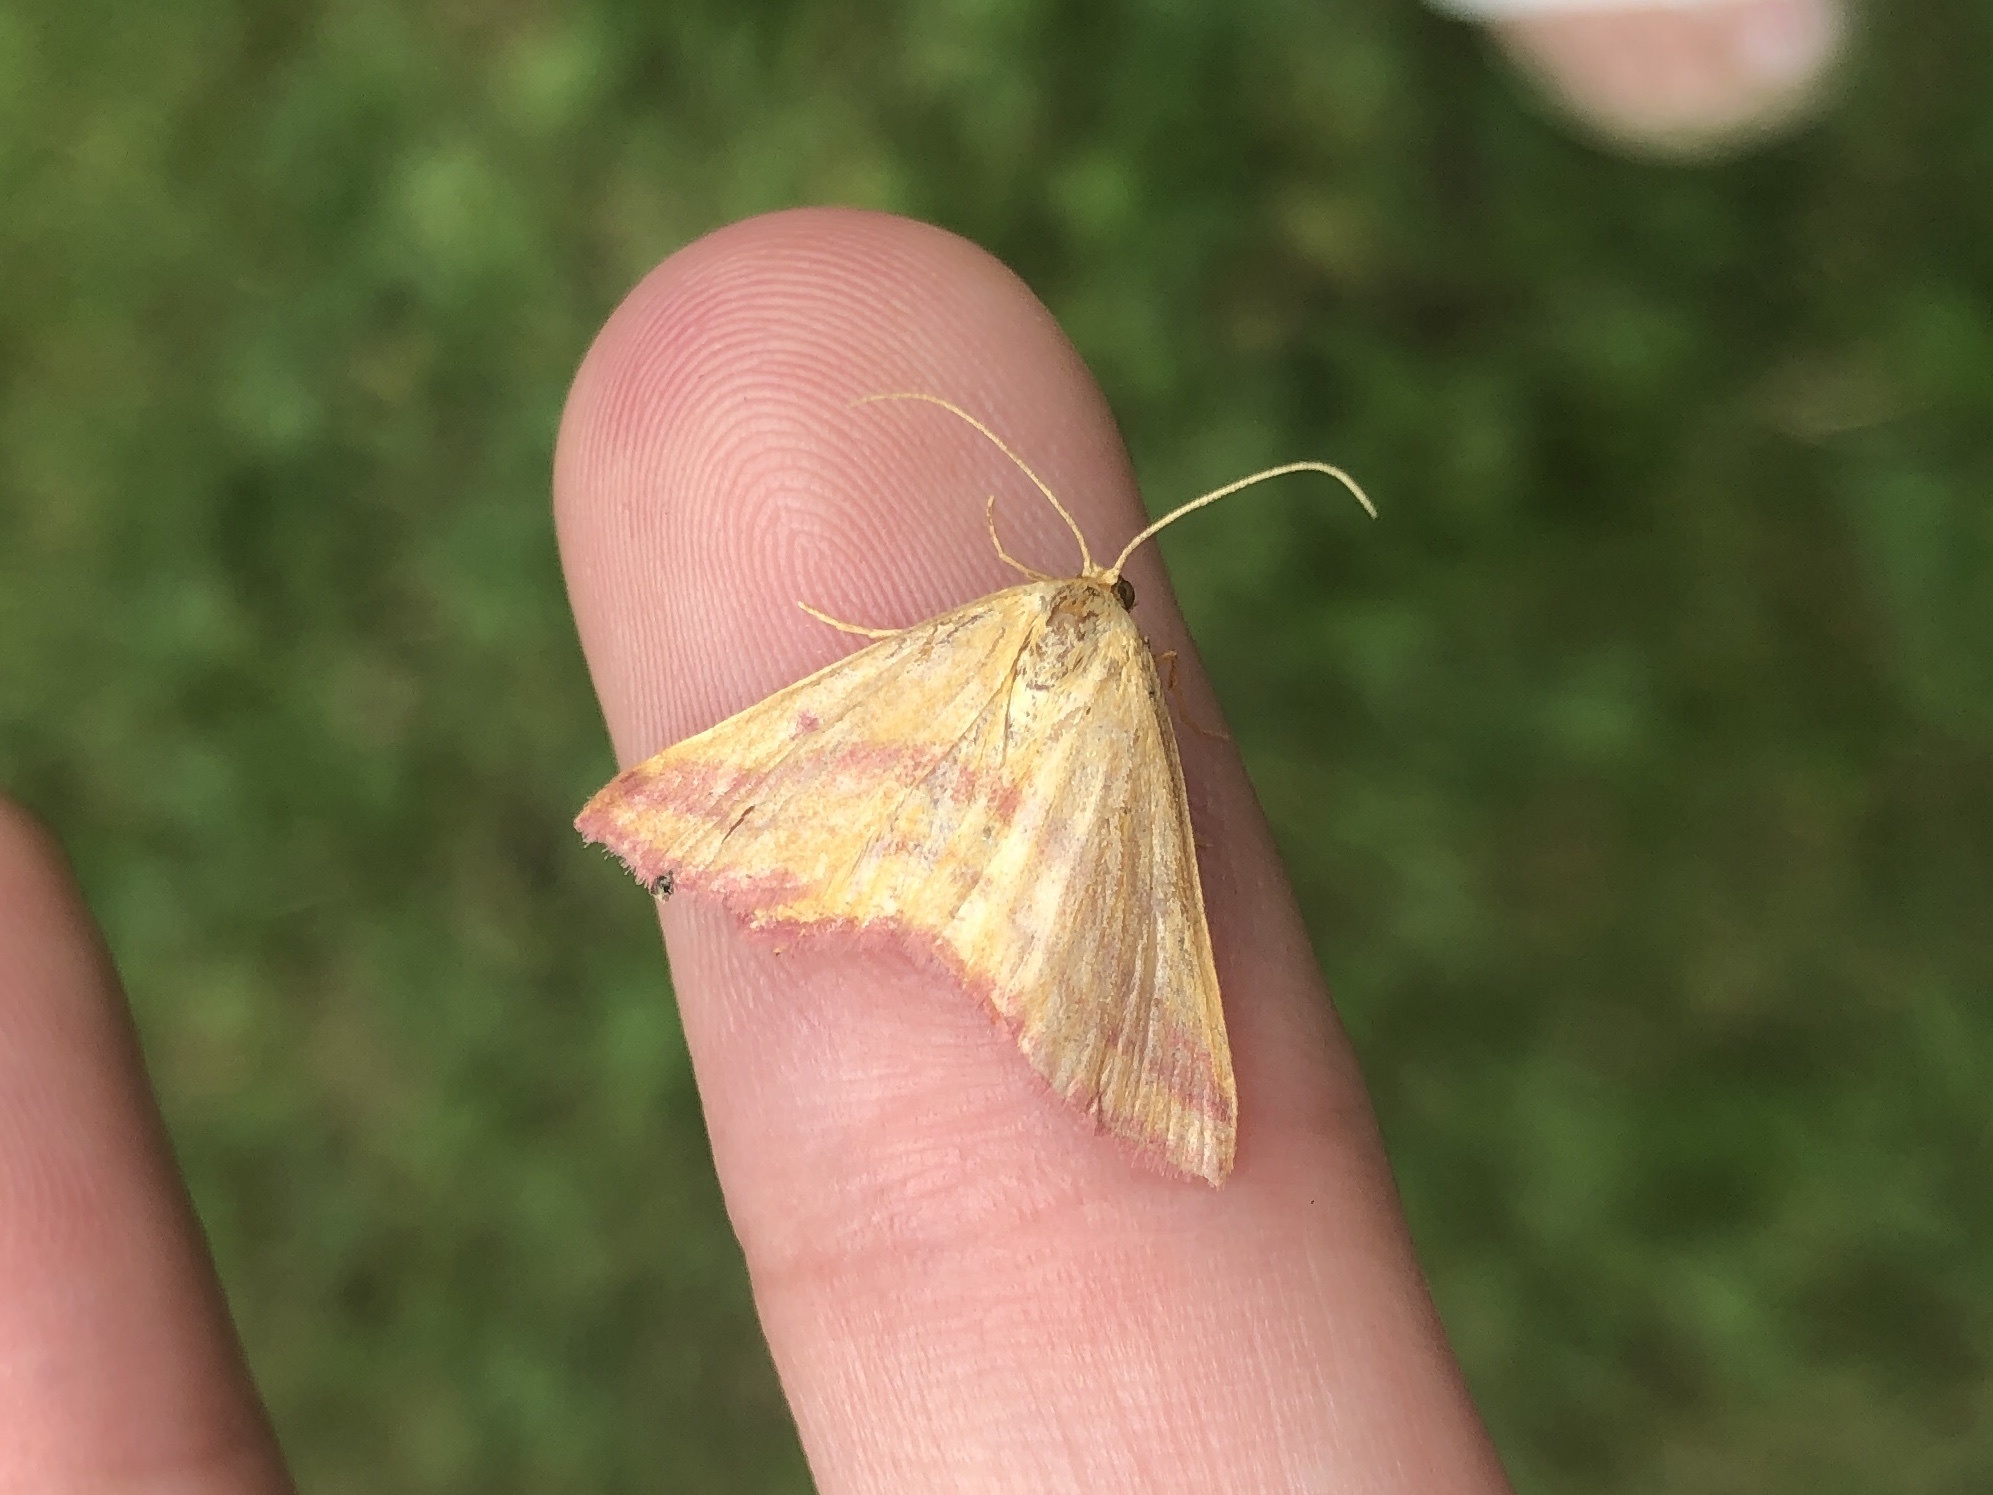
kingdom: Animalia
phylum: Arthropoda
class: Insecta
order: Lepidoptera
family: Geometridae
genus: Haematopis
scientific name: Haematopis grataria
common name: Chickweed geometer
